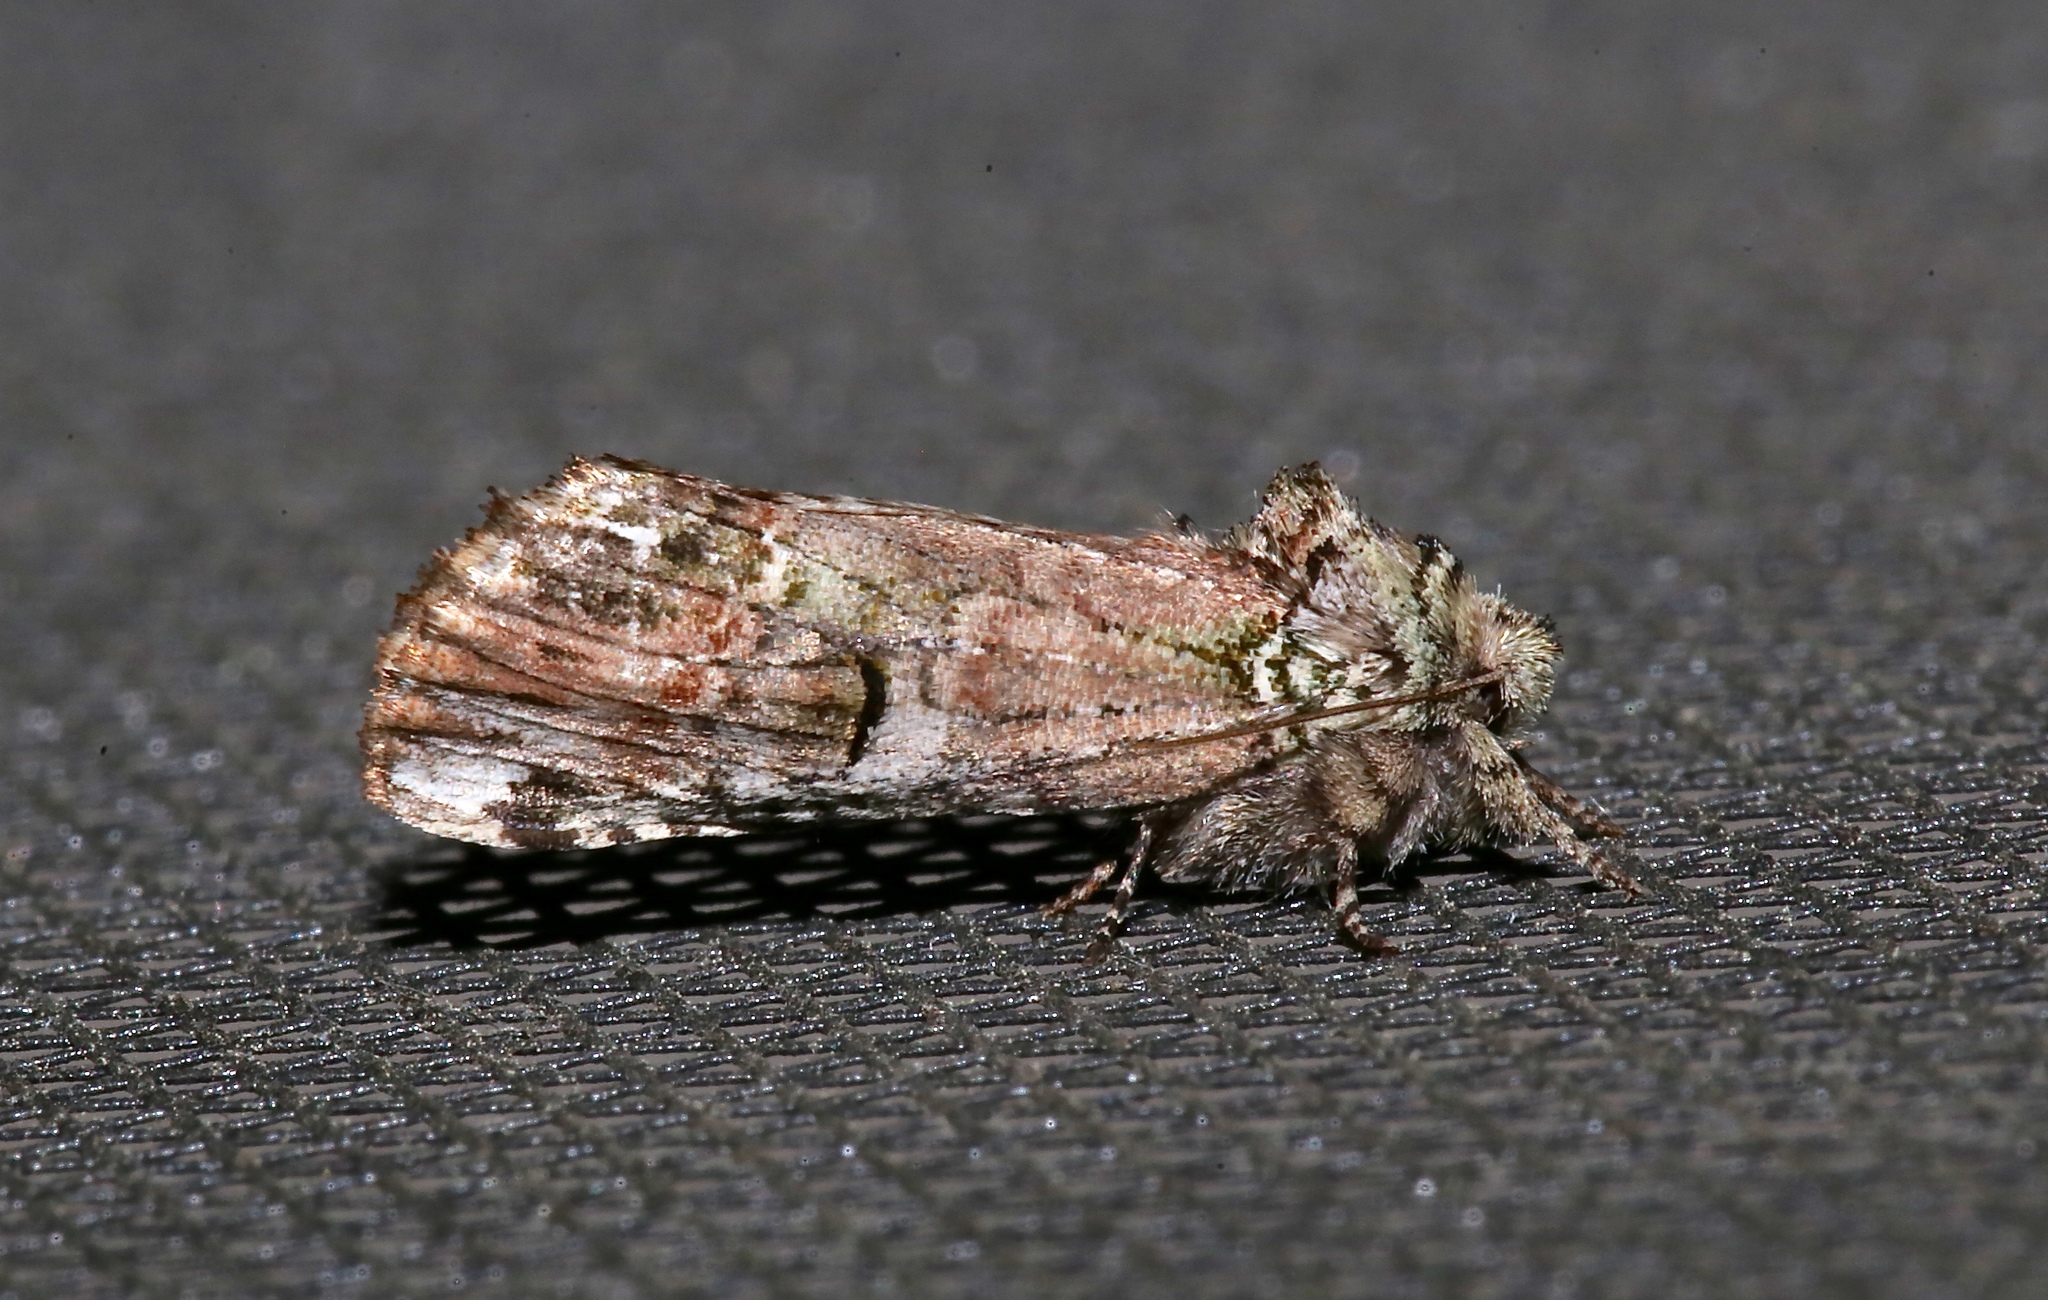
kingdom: Animalia
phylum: Arthropoda
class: Insecta
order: Lepidoptera
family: Notodontidae
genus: Schizura
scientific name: Schizura
